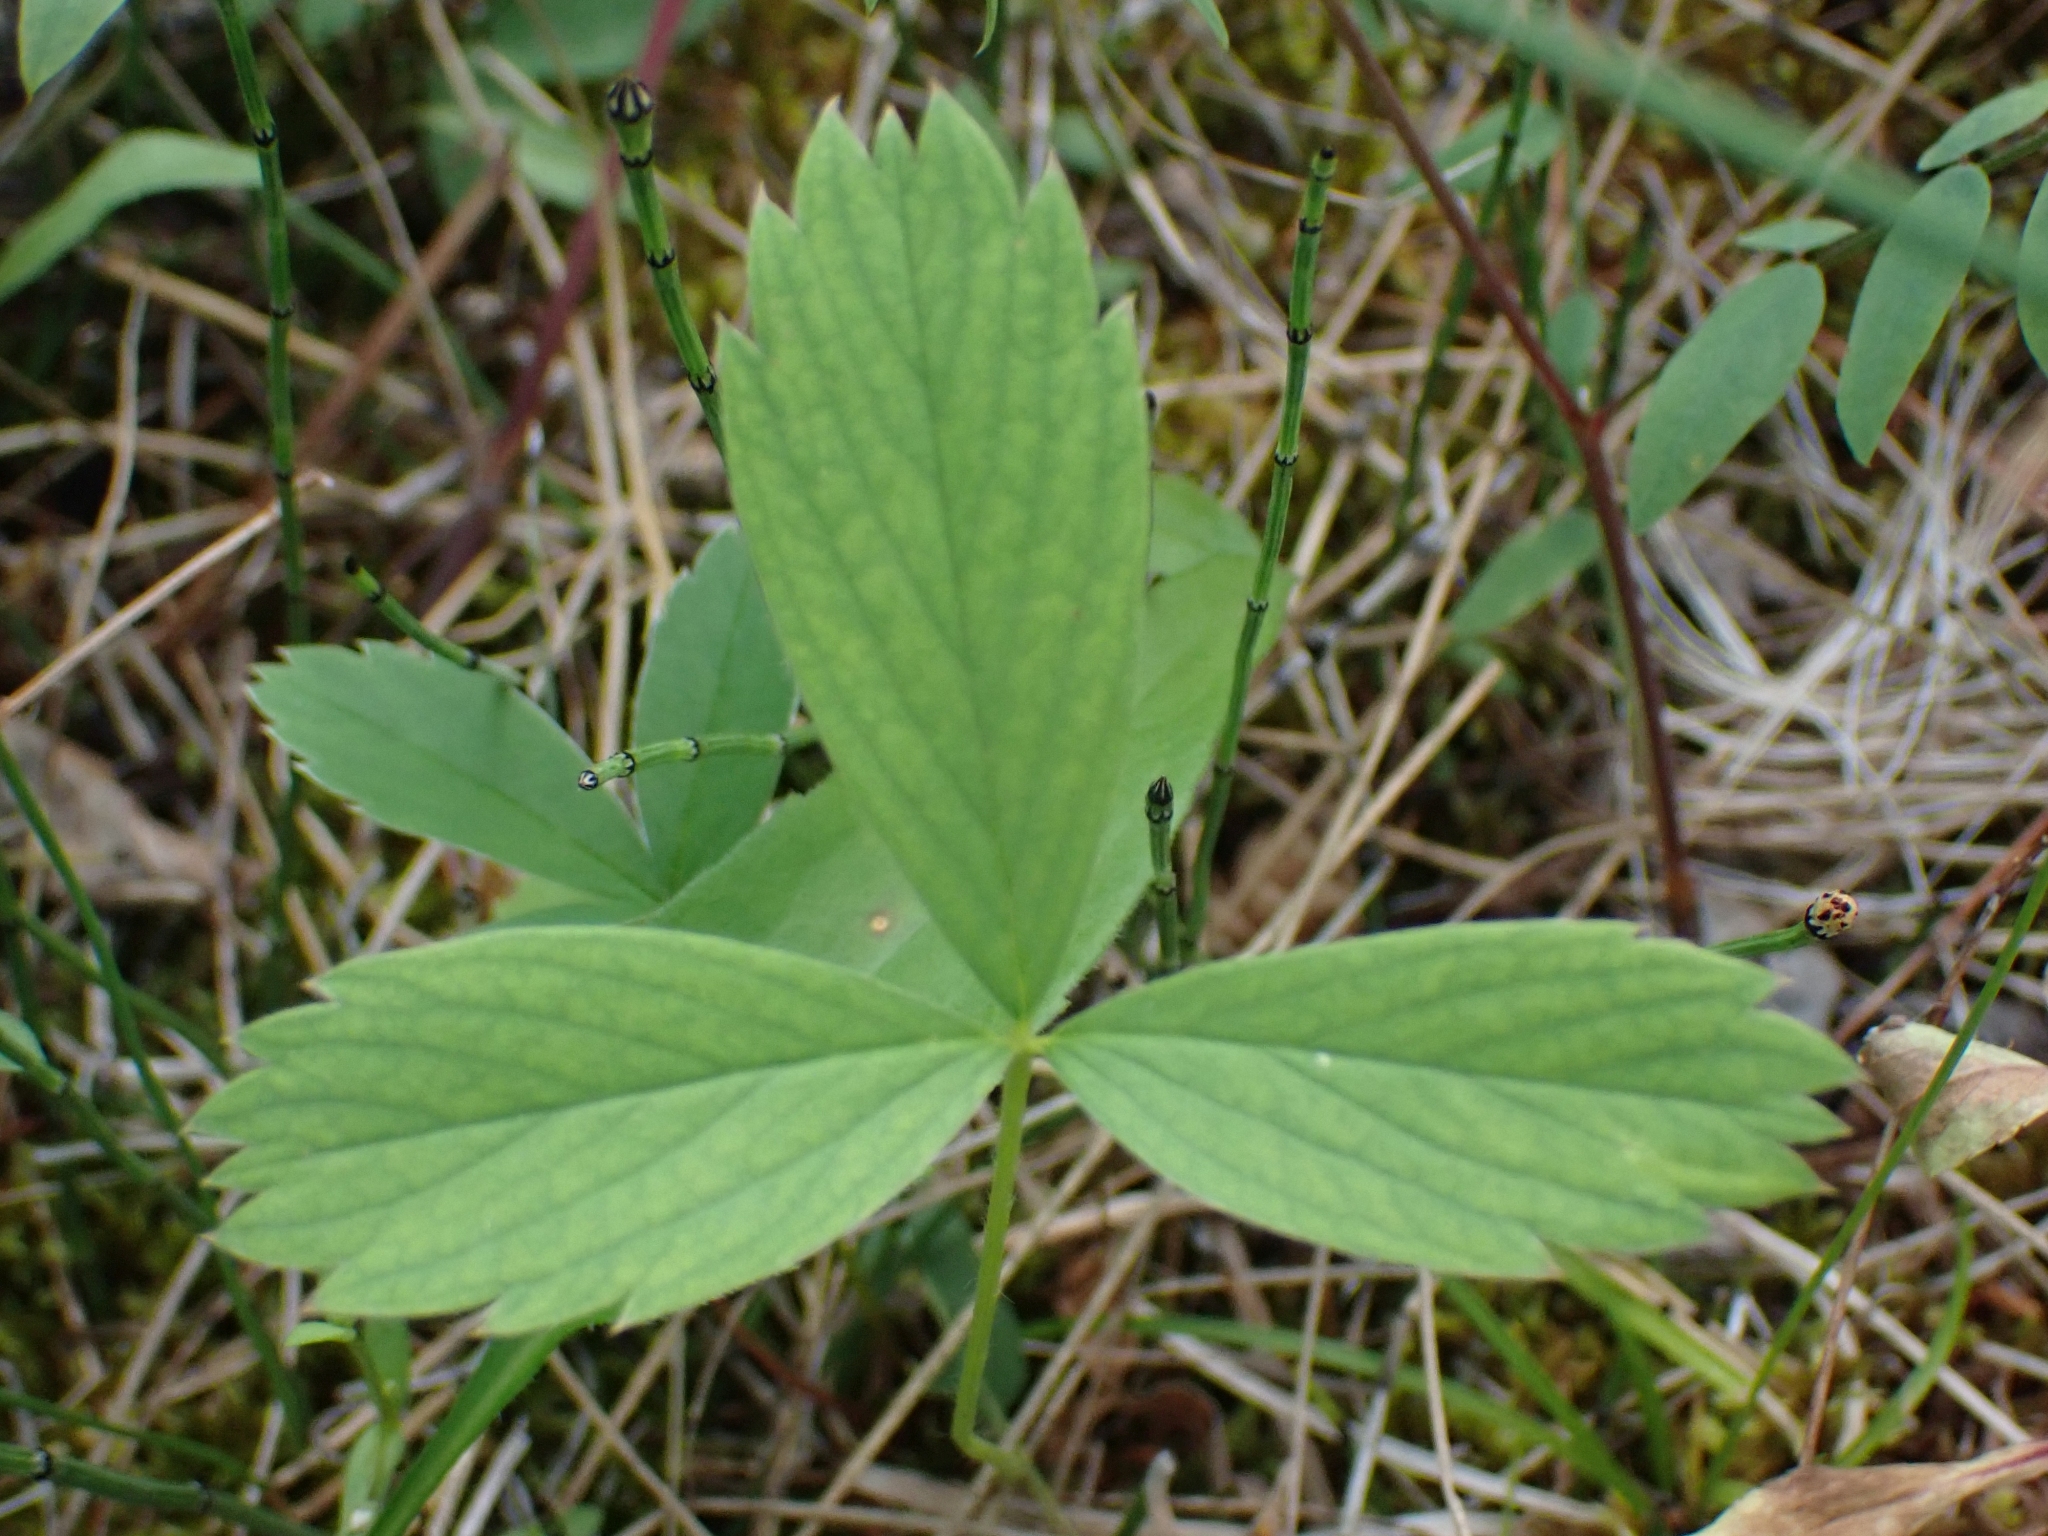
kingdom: Plantae
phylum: Tracheophyta
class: Magnoliopsida
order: Rosales
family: Rosaceae
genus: Fragaria
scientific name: Fragaria virginiana
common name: Thickleaved wild strawberry
